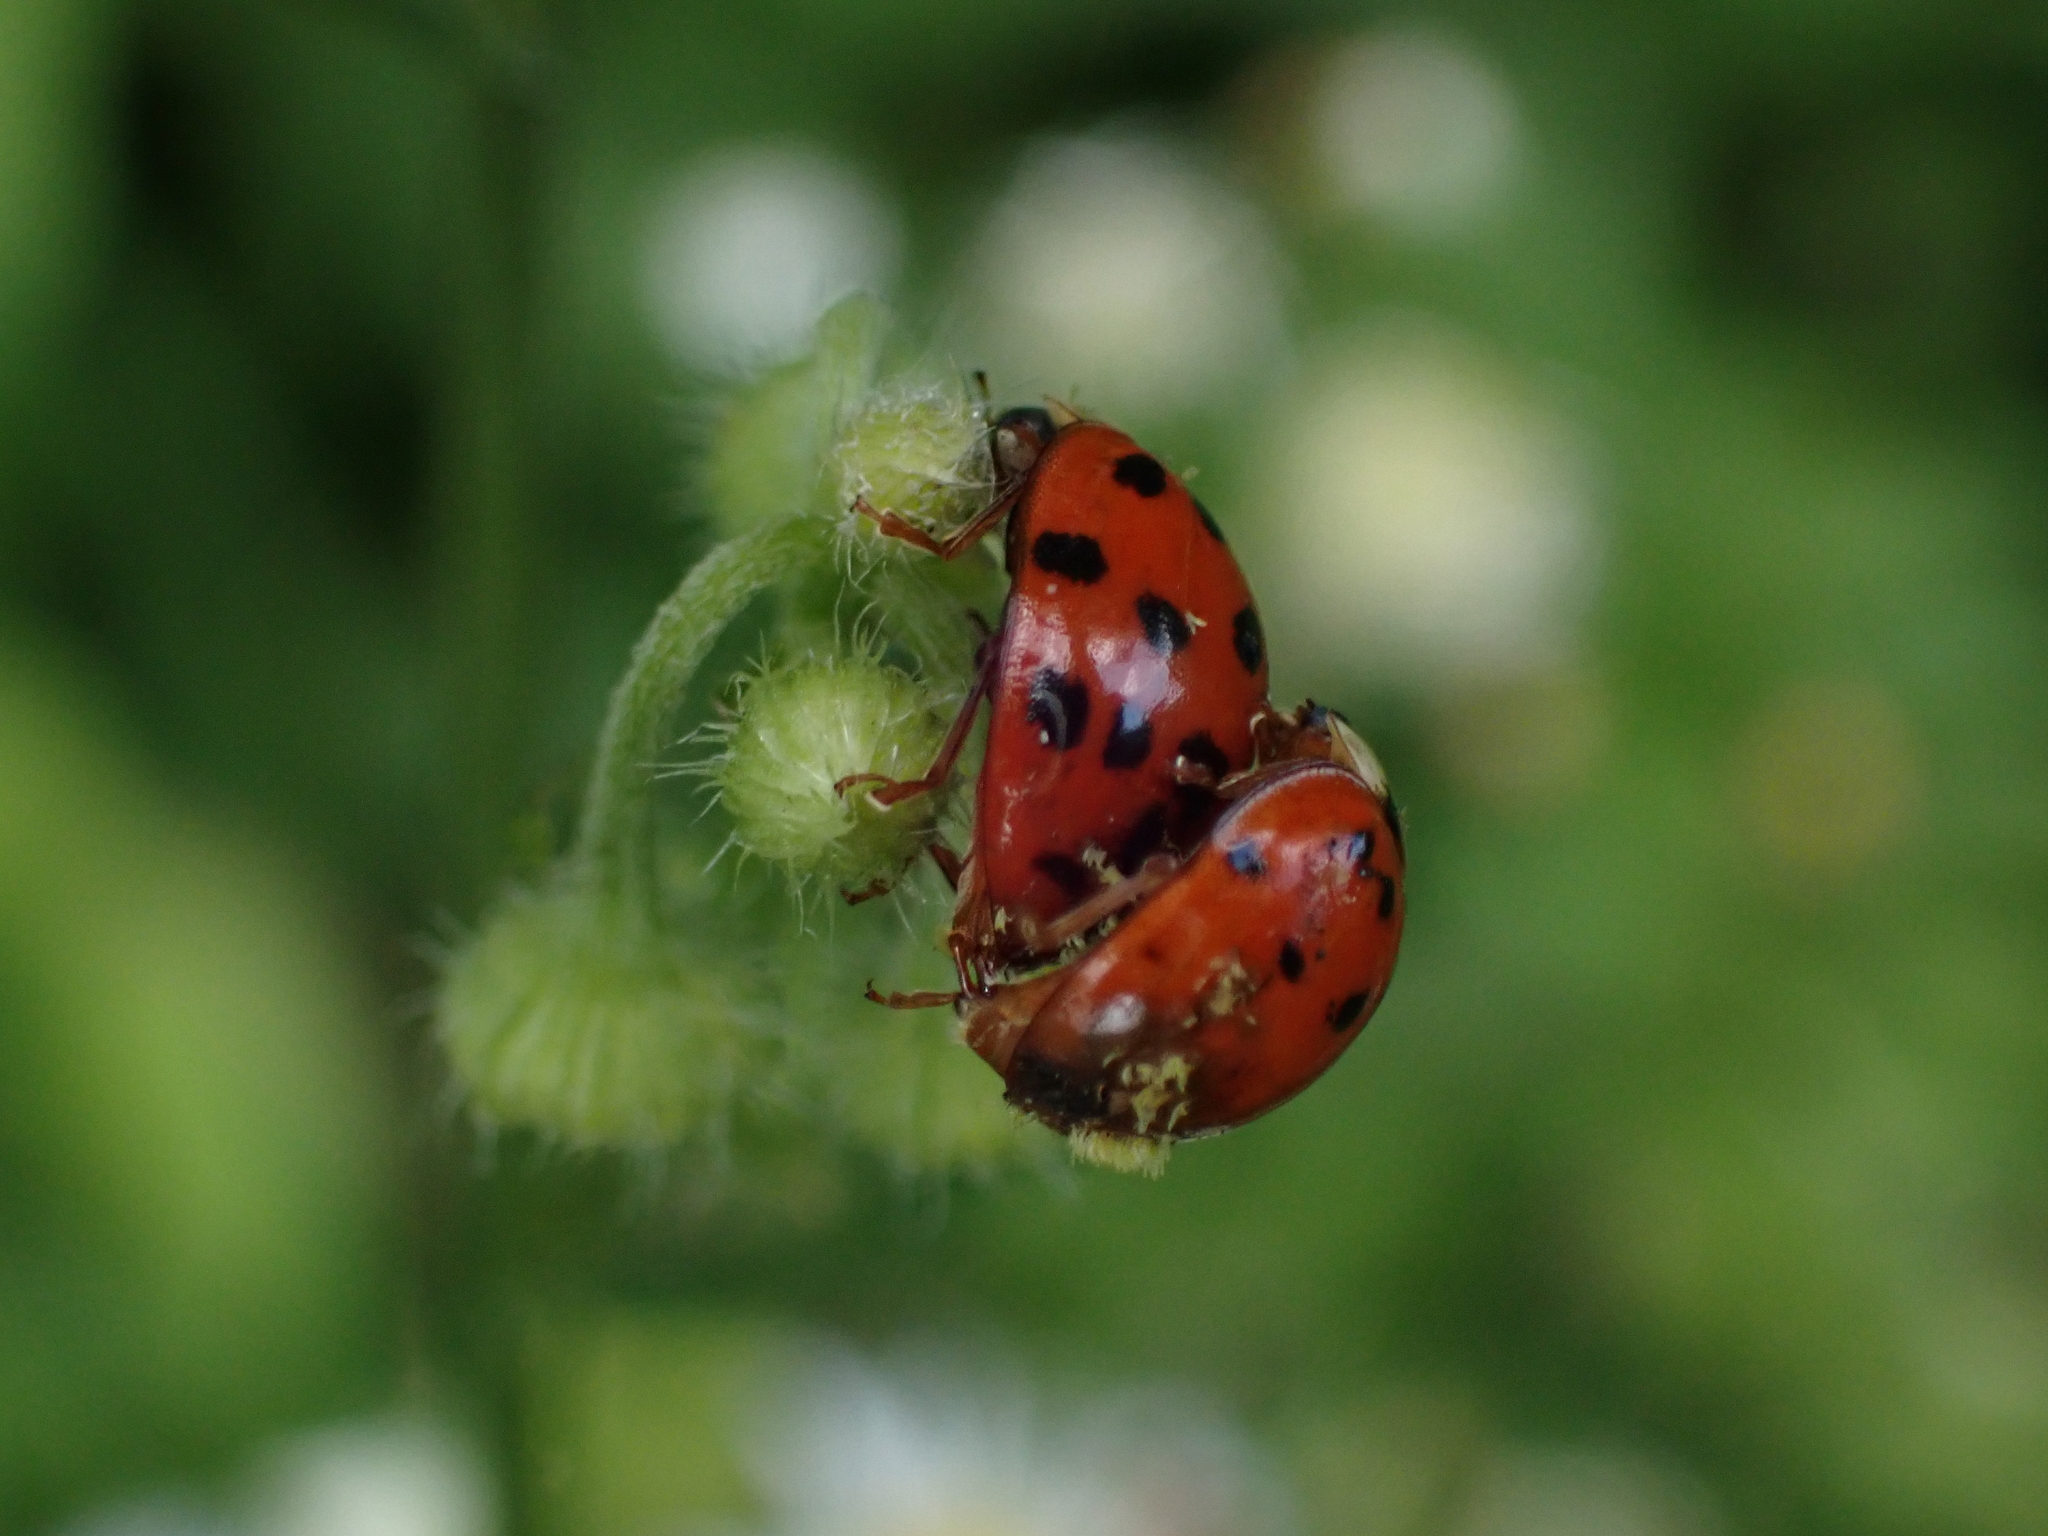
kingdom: Fungi
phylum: Ascomycota
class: Laboulbeniomycetes
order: Laboulbeniales
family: Laboulbeniaceae
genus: Hesperomyces
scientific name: Hesperomyces harmoniae
